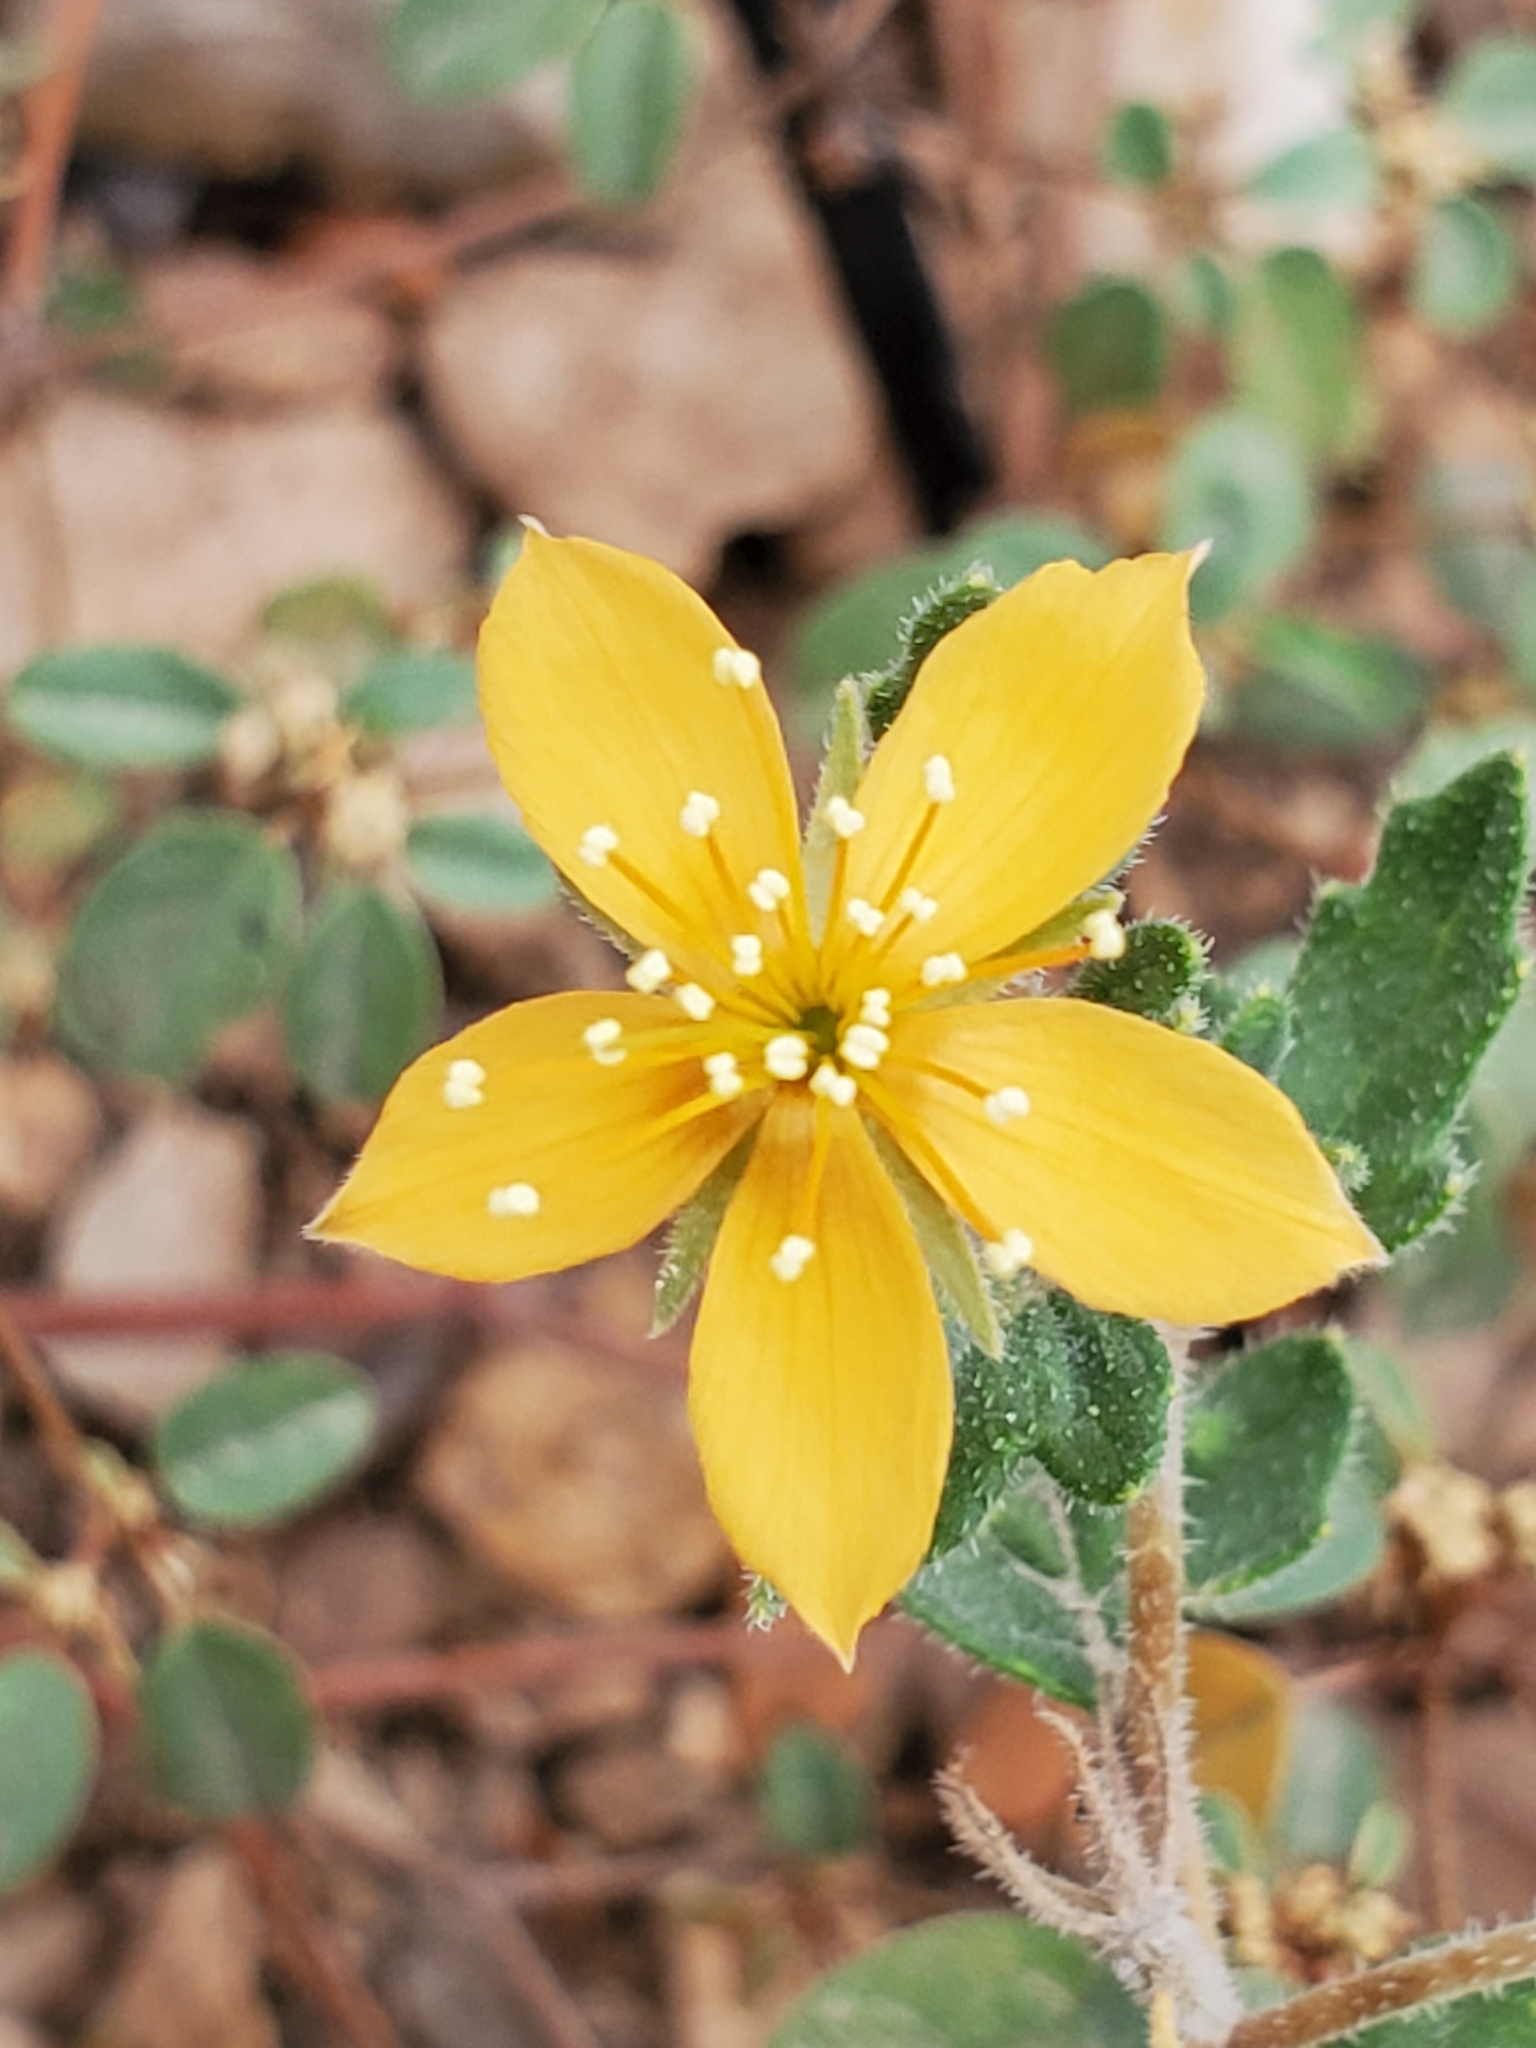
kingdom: Plantae
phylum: Tracheophyta
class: Magnoliopsida
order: Cornales
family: Loasaceae
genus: Mentzelia
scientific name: Mentzelia oligosperma
